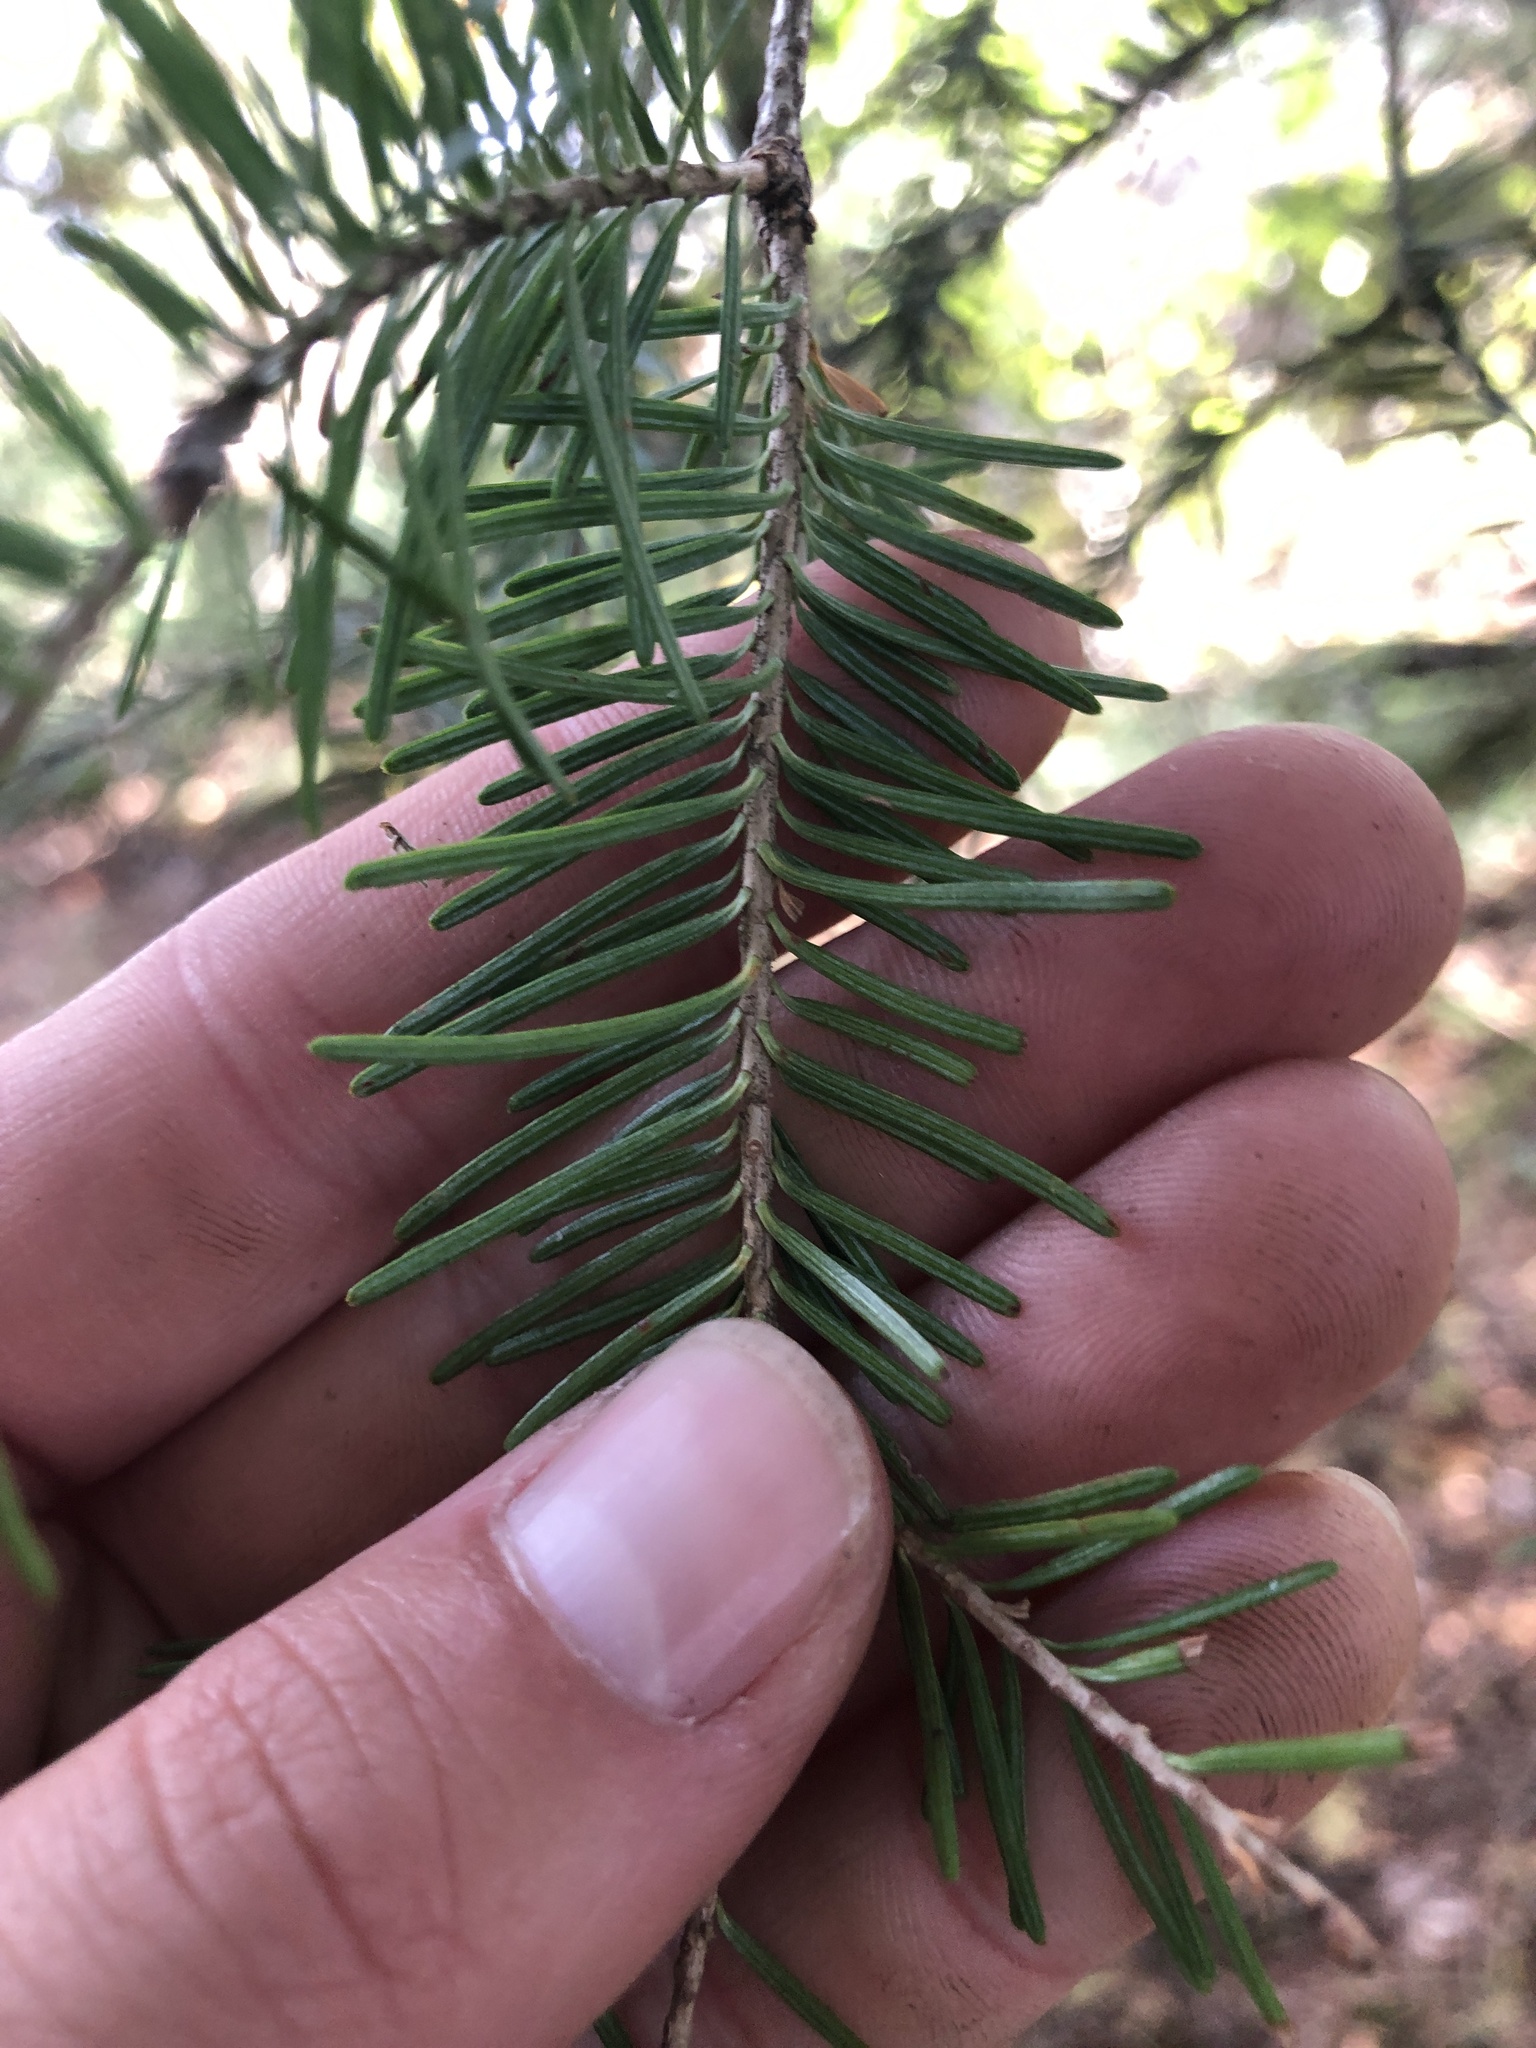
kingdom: Plantae
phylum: Tracheophyta
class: Pinopsida
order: Pinales
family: Pinaceae
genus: Abies
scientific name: Abies balsamea
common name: Balsam fir
